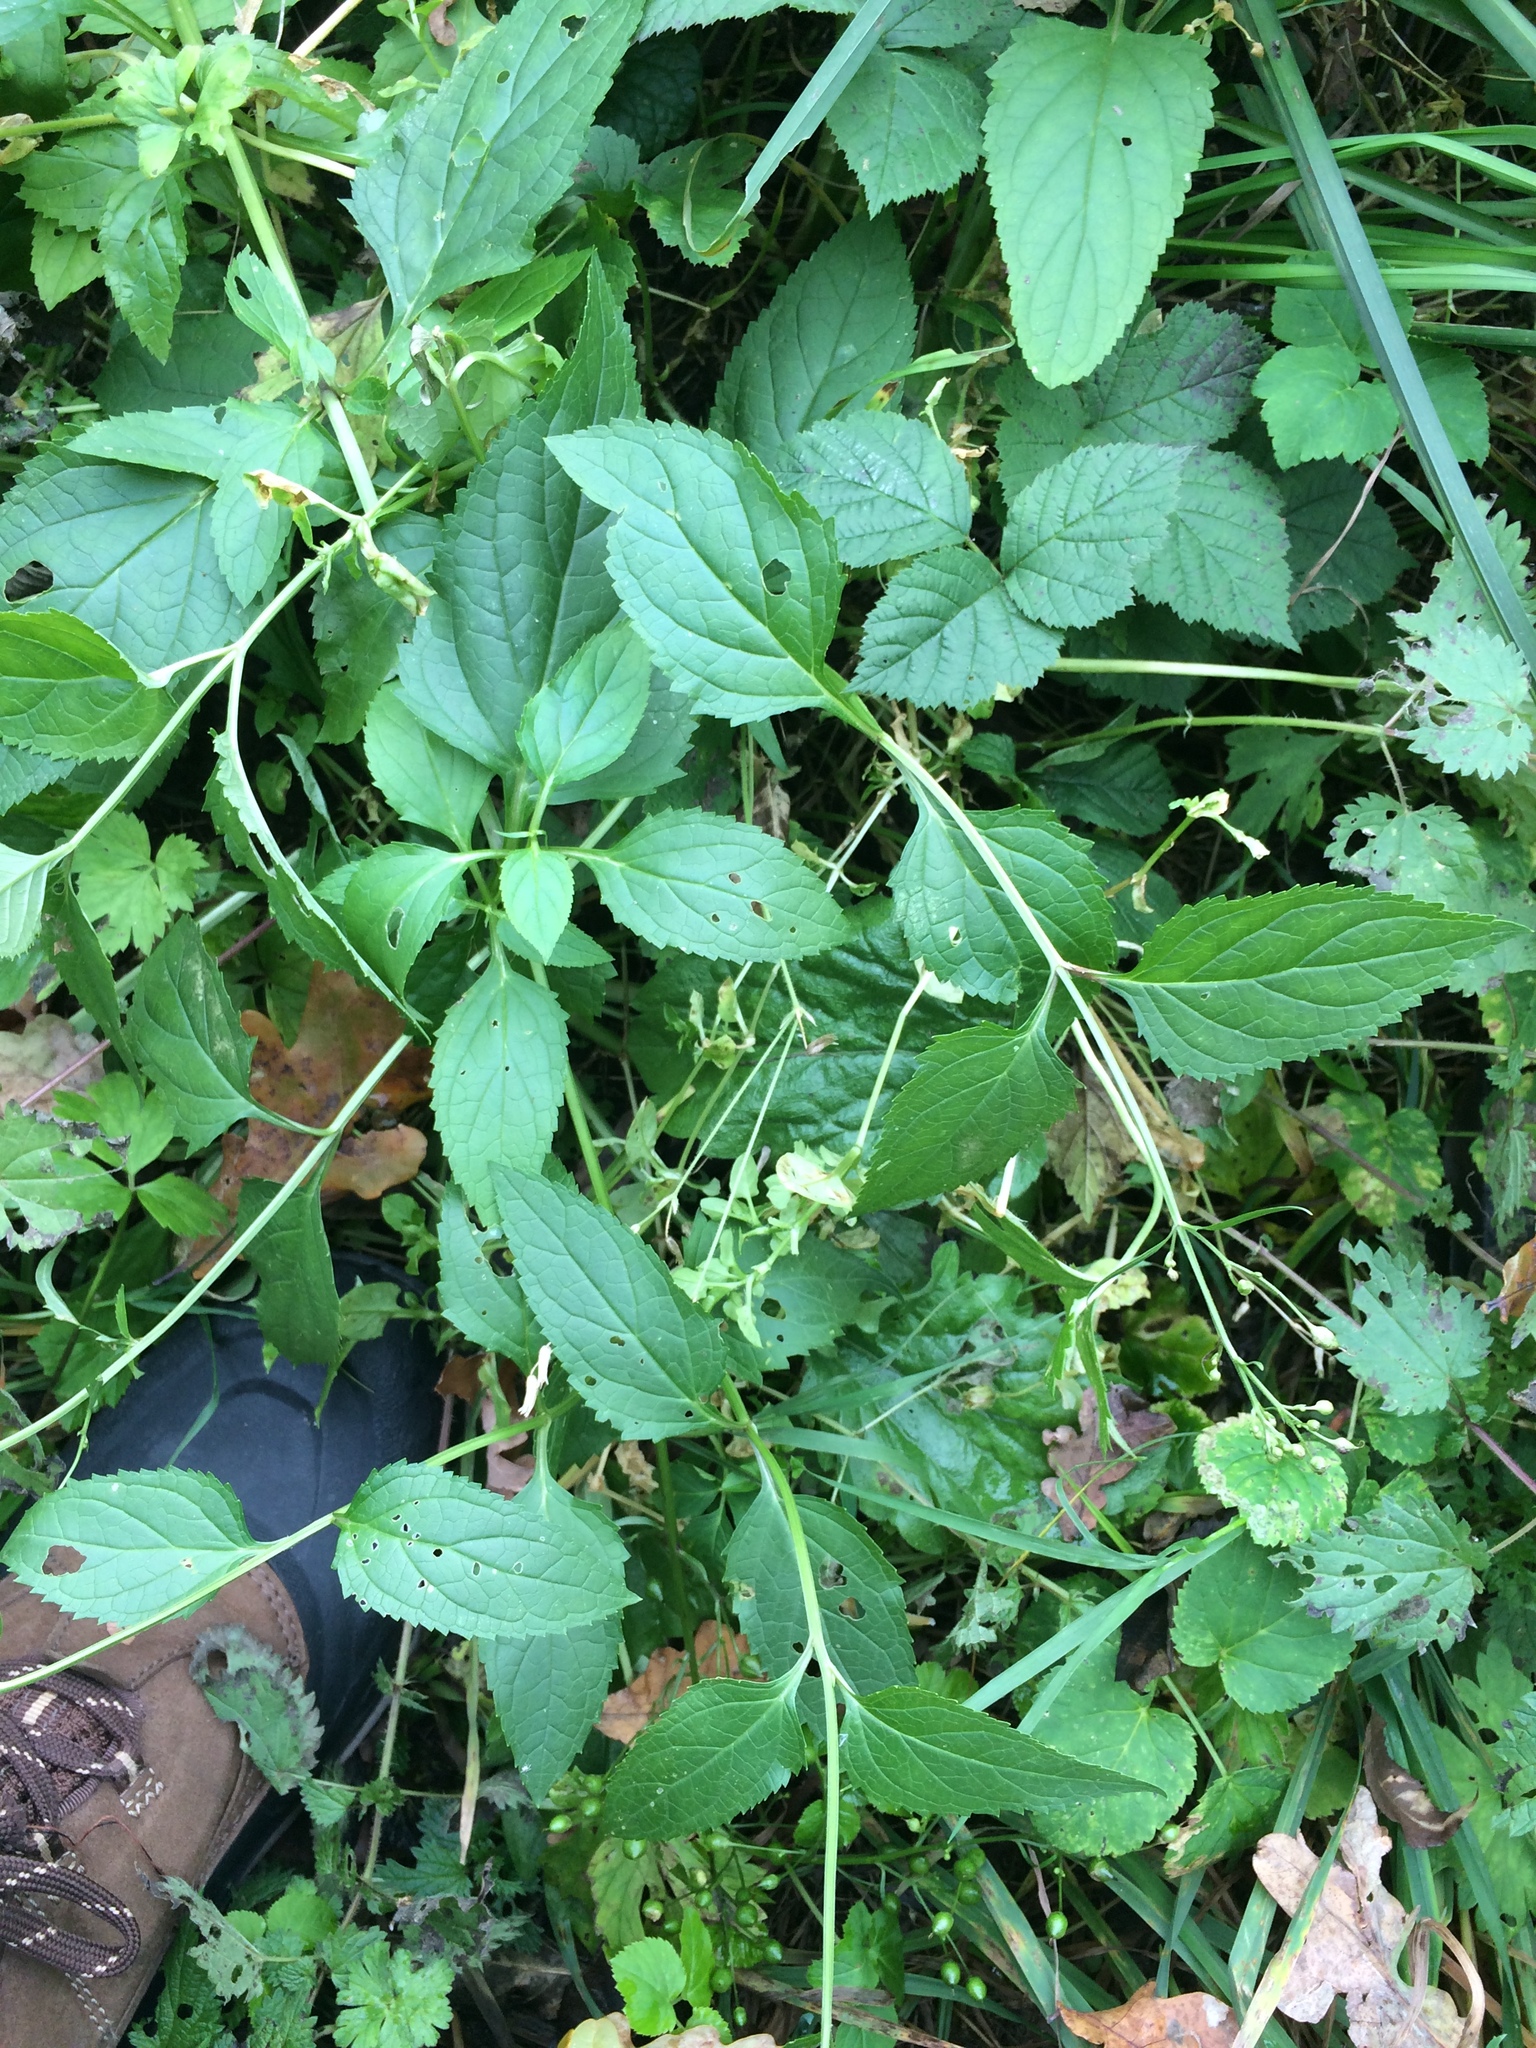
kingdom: Plantae
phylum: Tracheophyta
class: Magnoliopsida
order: Lamiales
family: Scrophulariaceae
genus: Scrophularia
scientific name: Scrophularia nodosa
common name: Common figwort
